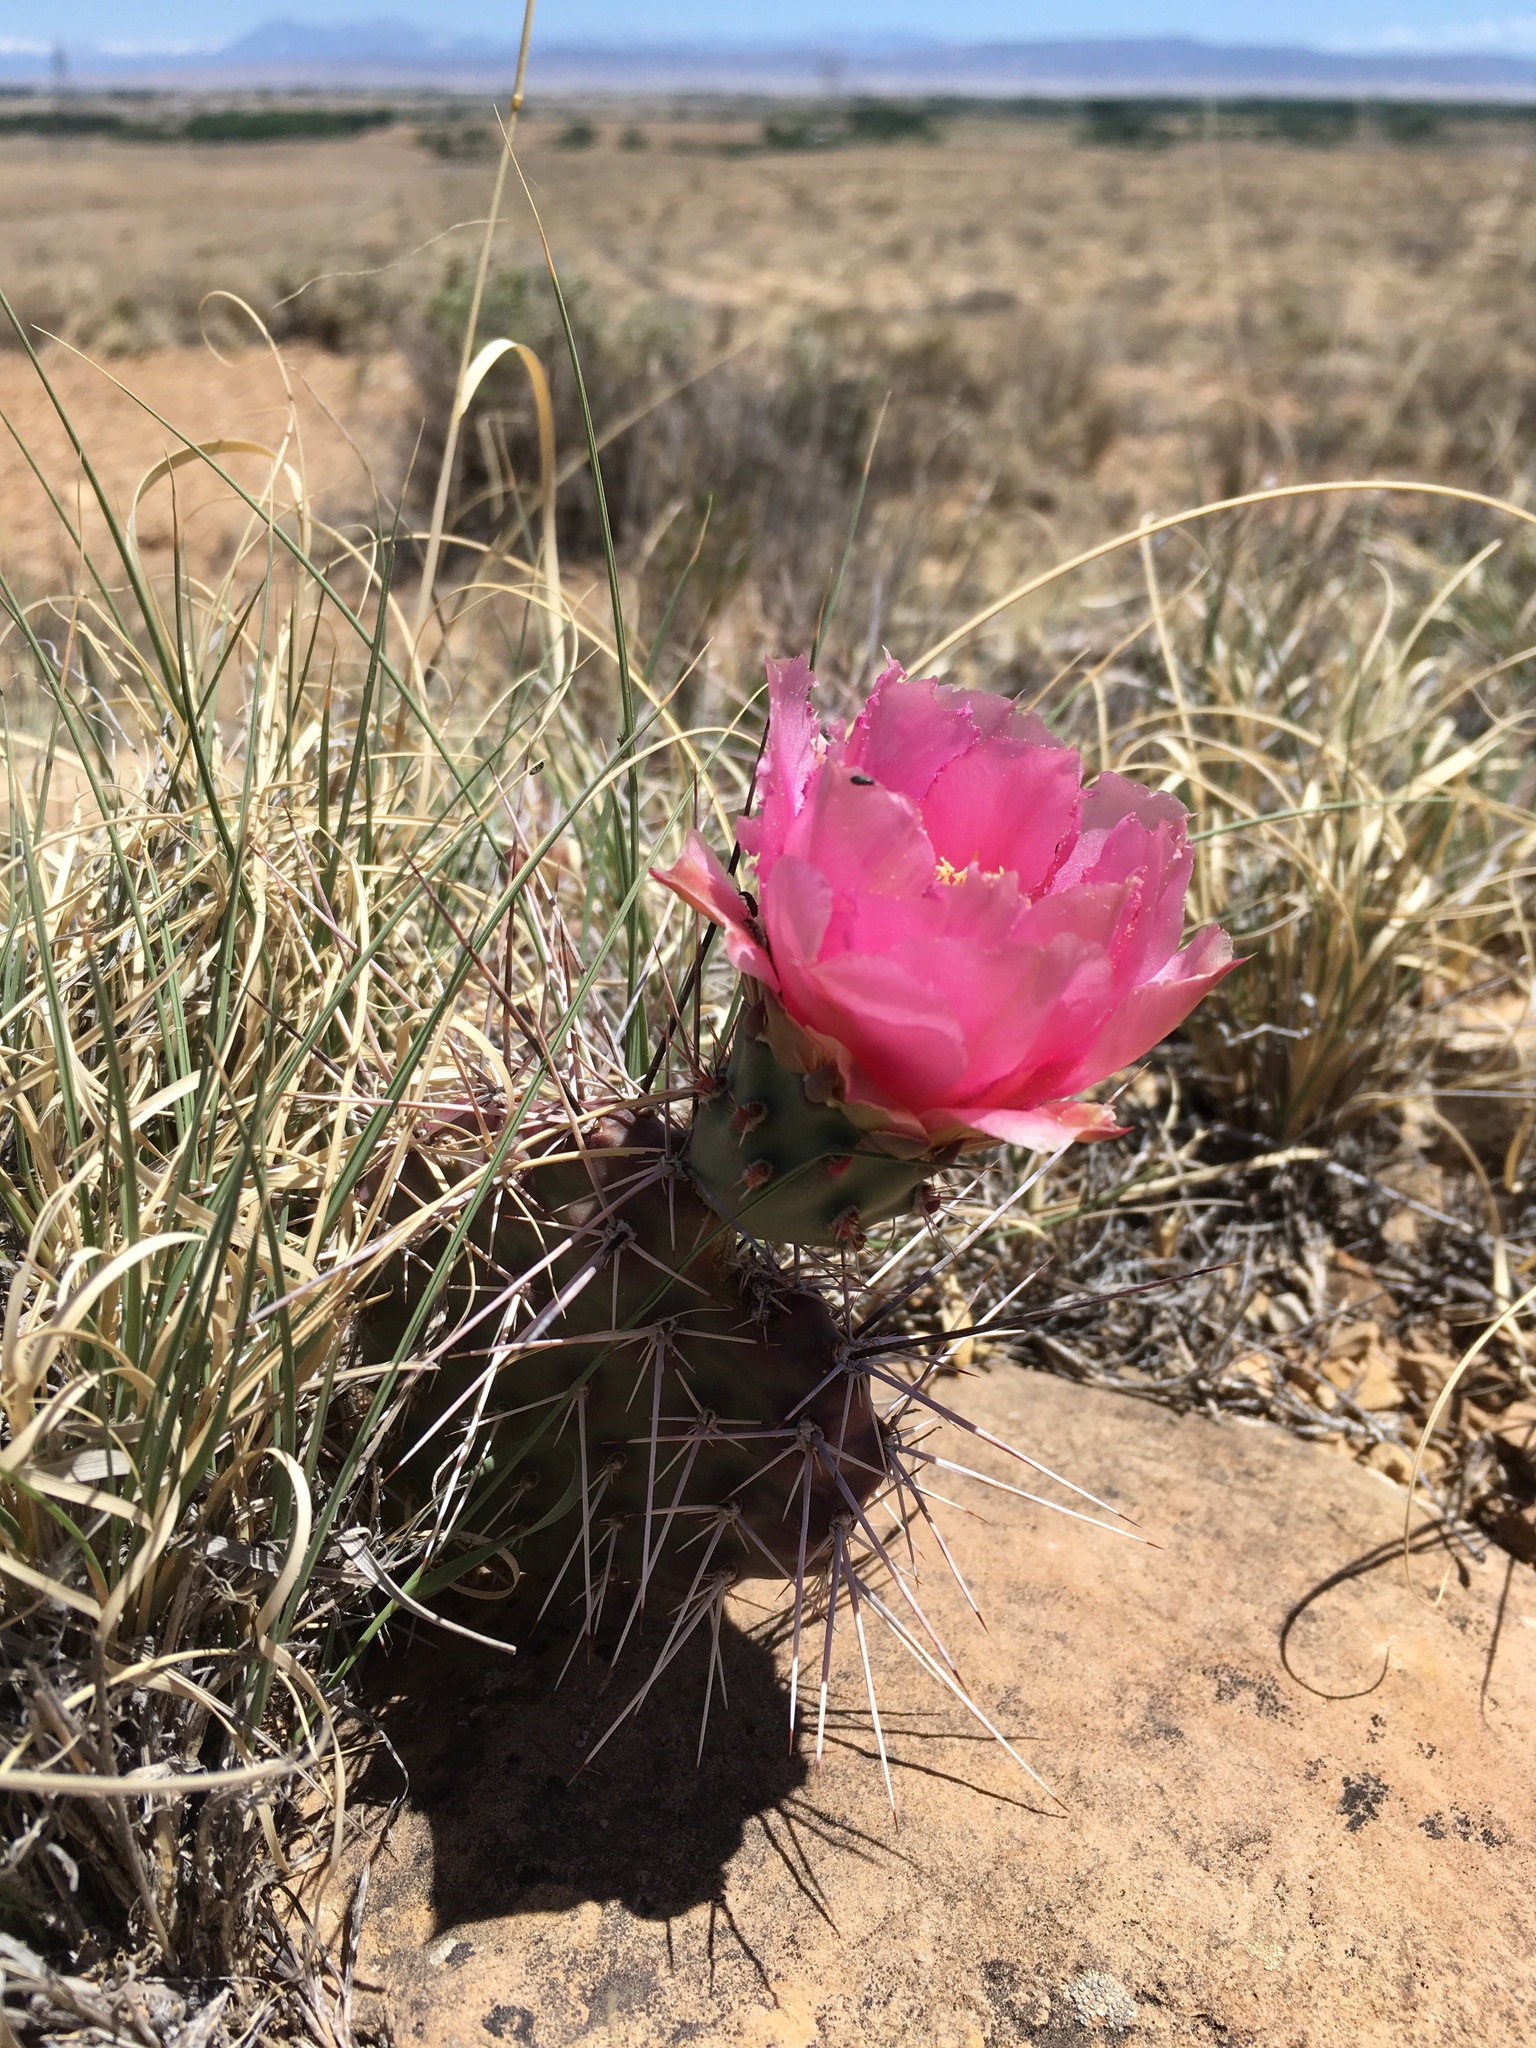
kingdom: Plantae
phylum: Tracheophyta
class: Magnoliopsida
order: Caryophyllales
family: Cactaceae
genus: Opuntia
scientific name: Opuntia polyacantha
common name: Plains prickly-pear
